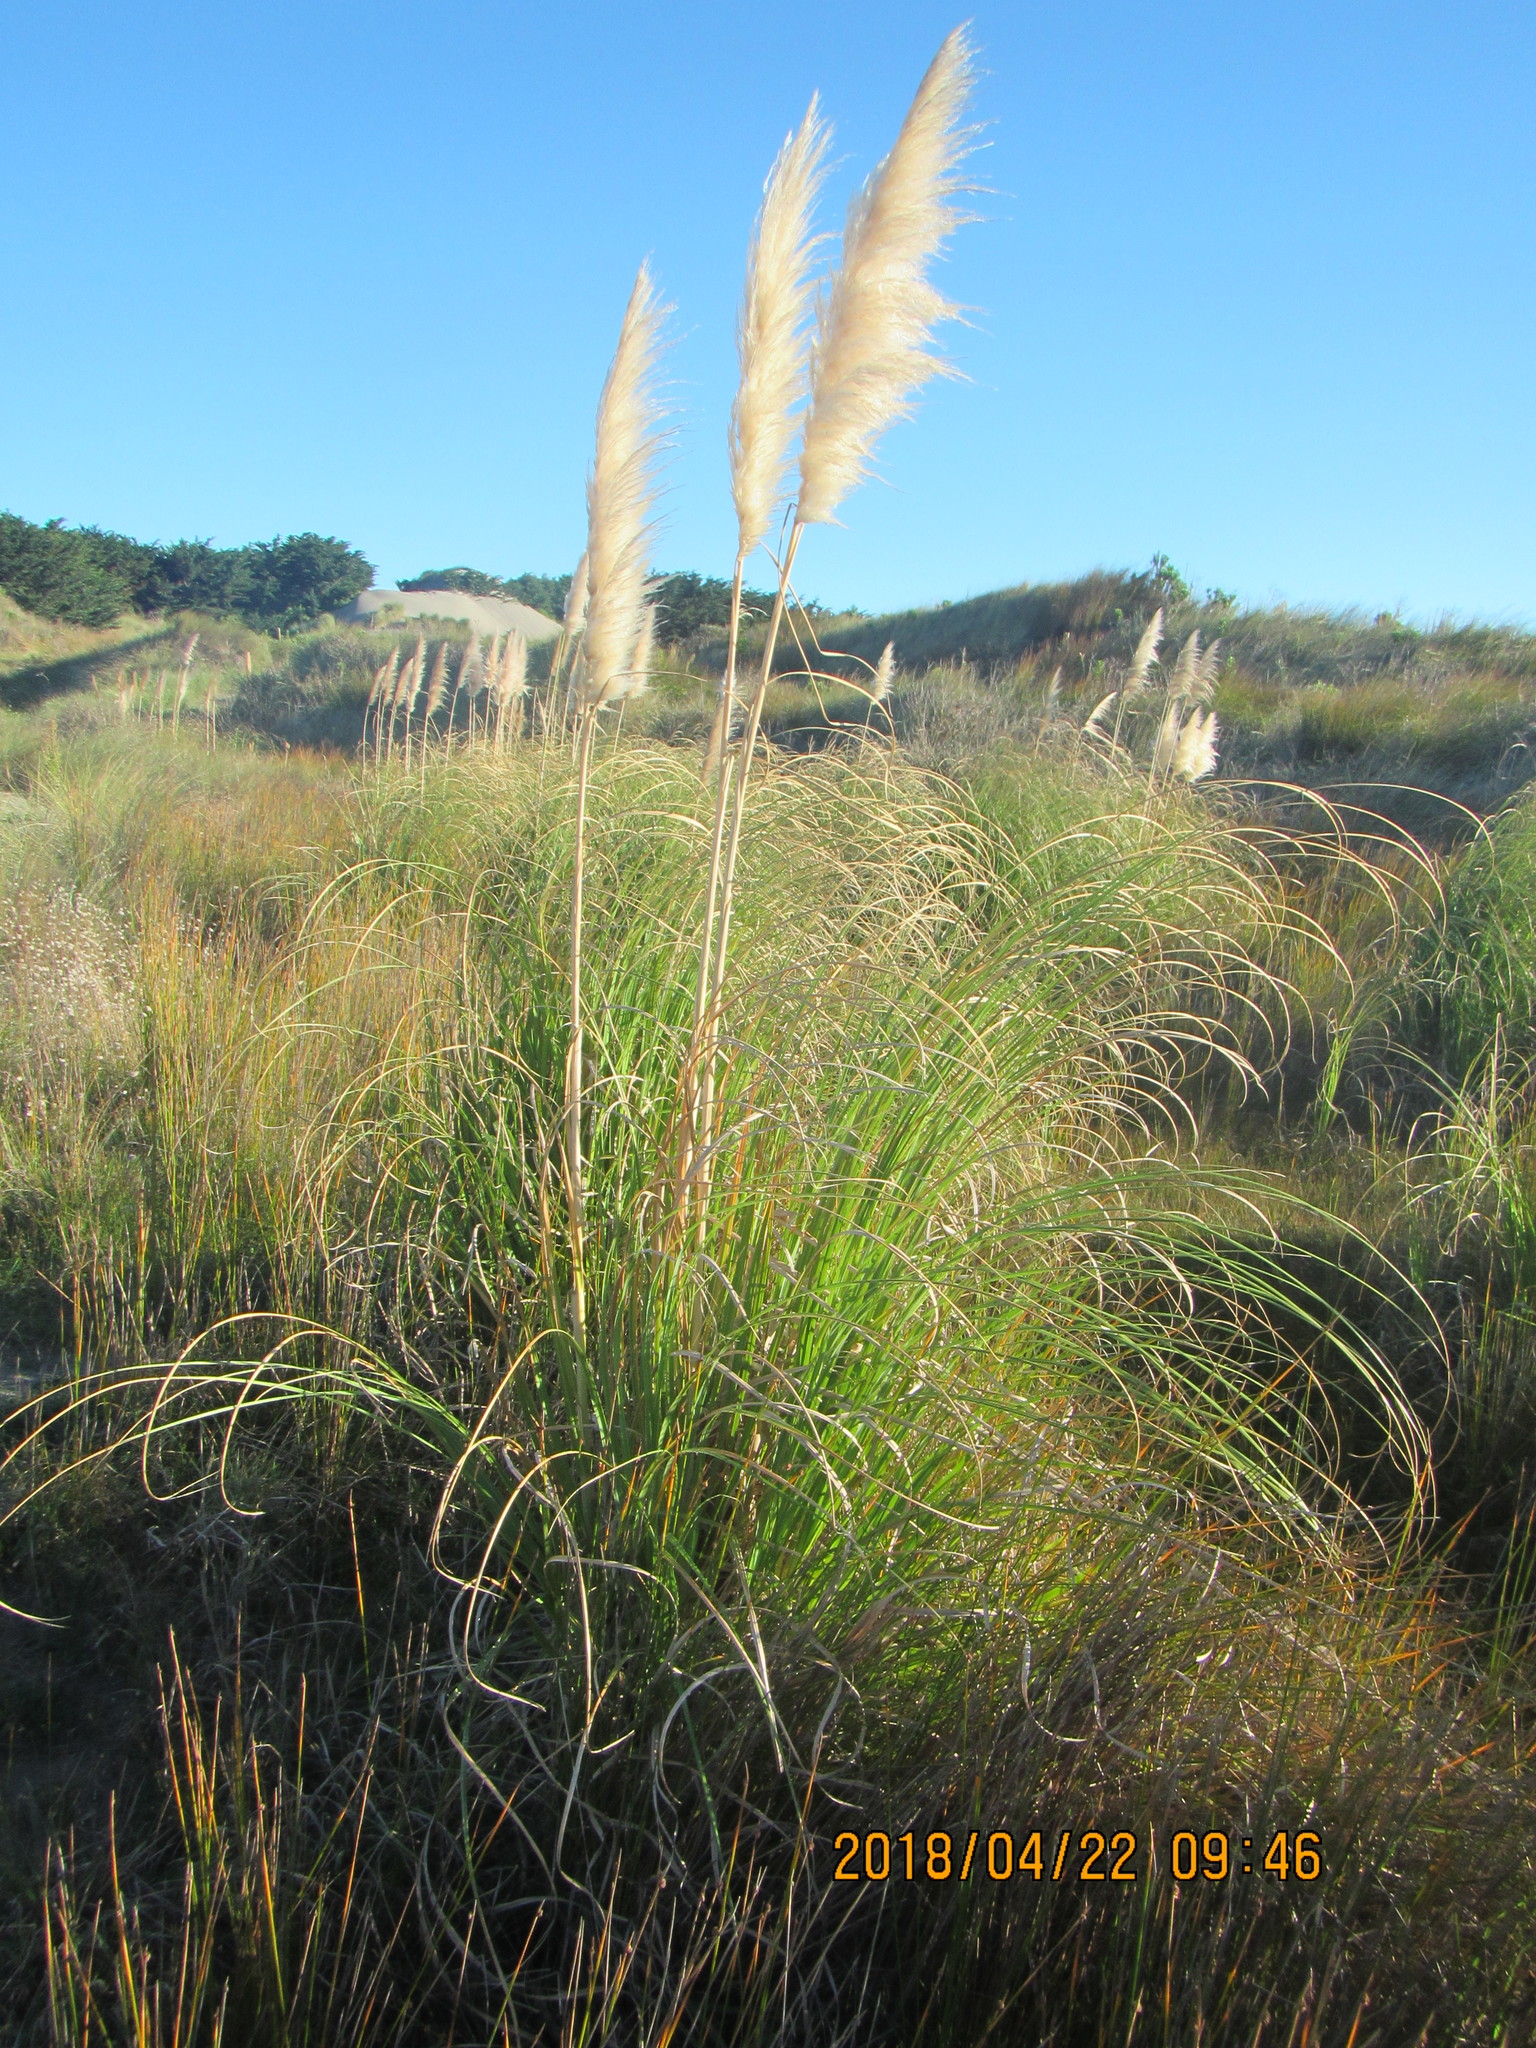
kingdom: Plantae
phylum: Tracheophyta
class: Liliopsida
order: Poales
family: Poaceae
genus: Cortaderia
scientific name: Cortaderia selloana
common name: Uruguayan pampas grass
